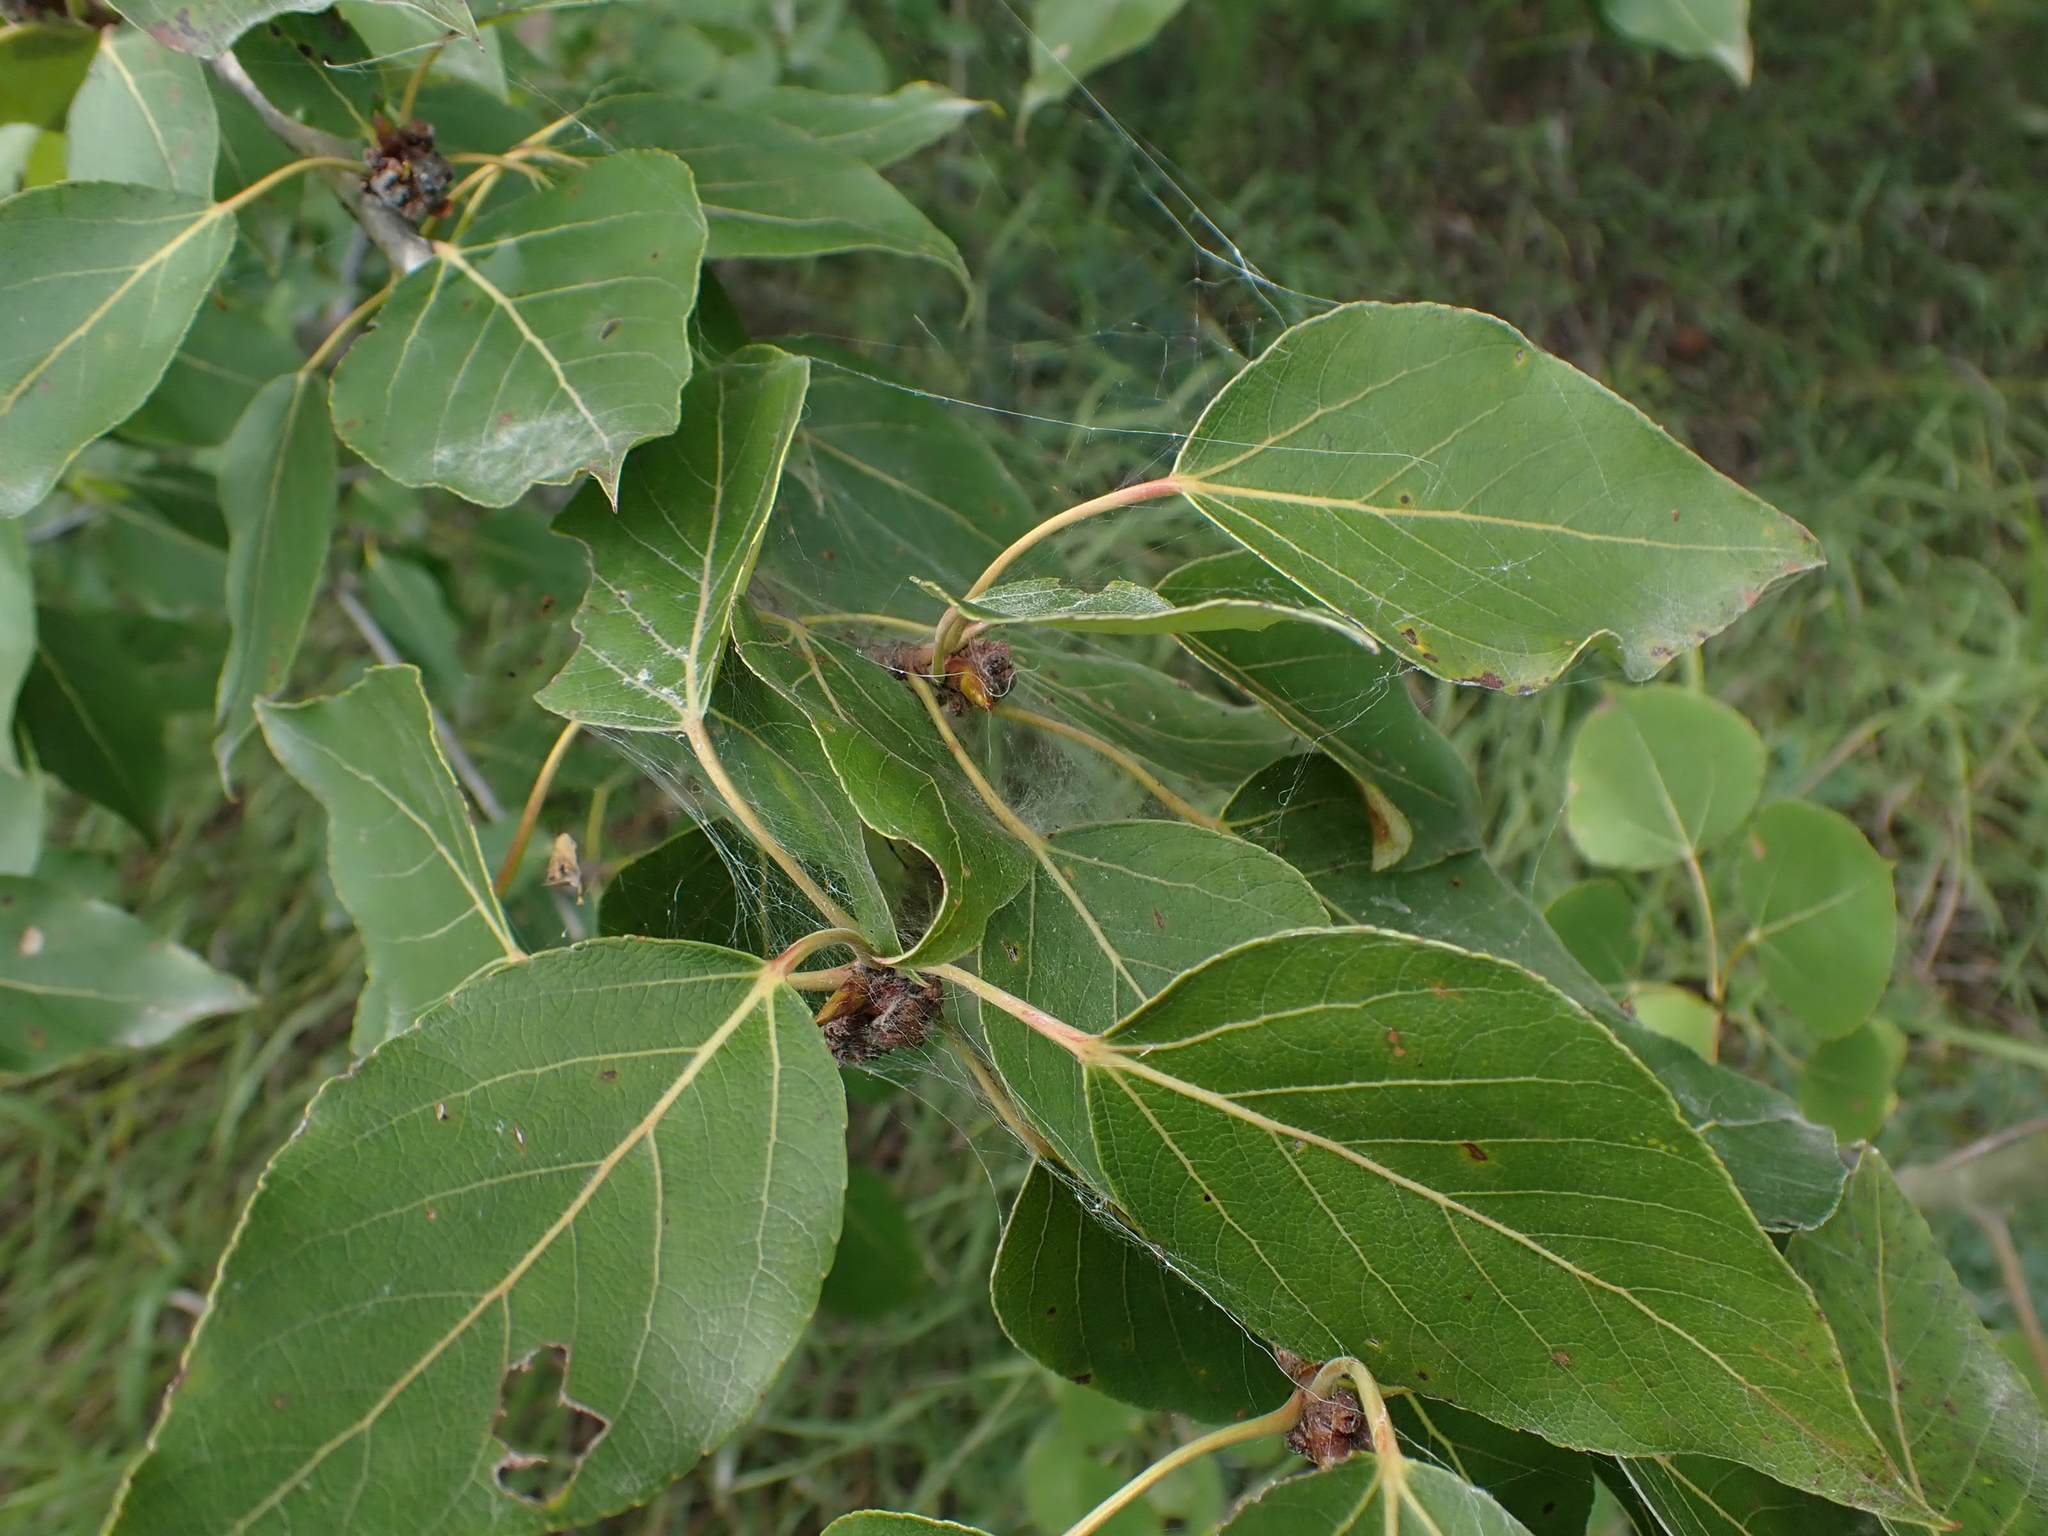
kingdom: Plantae
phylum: Tracheophyta
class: Magnoliopsida
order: Malpighiales
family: Salicaceae
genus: Populus
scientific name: Populus balsamifera
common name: Balsam poplar
